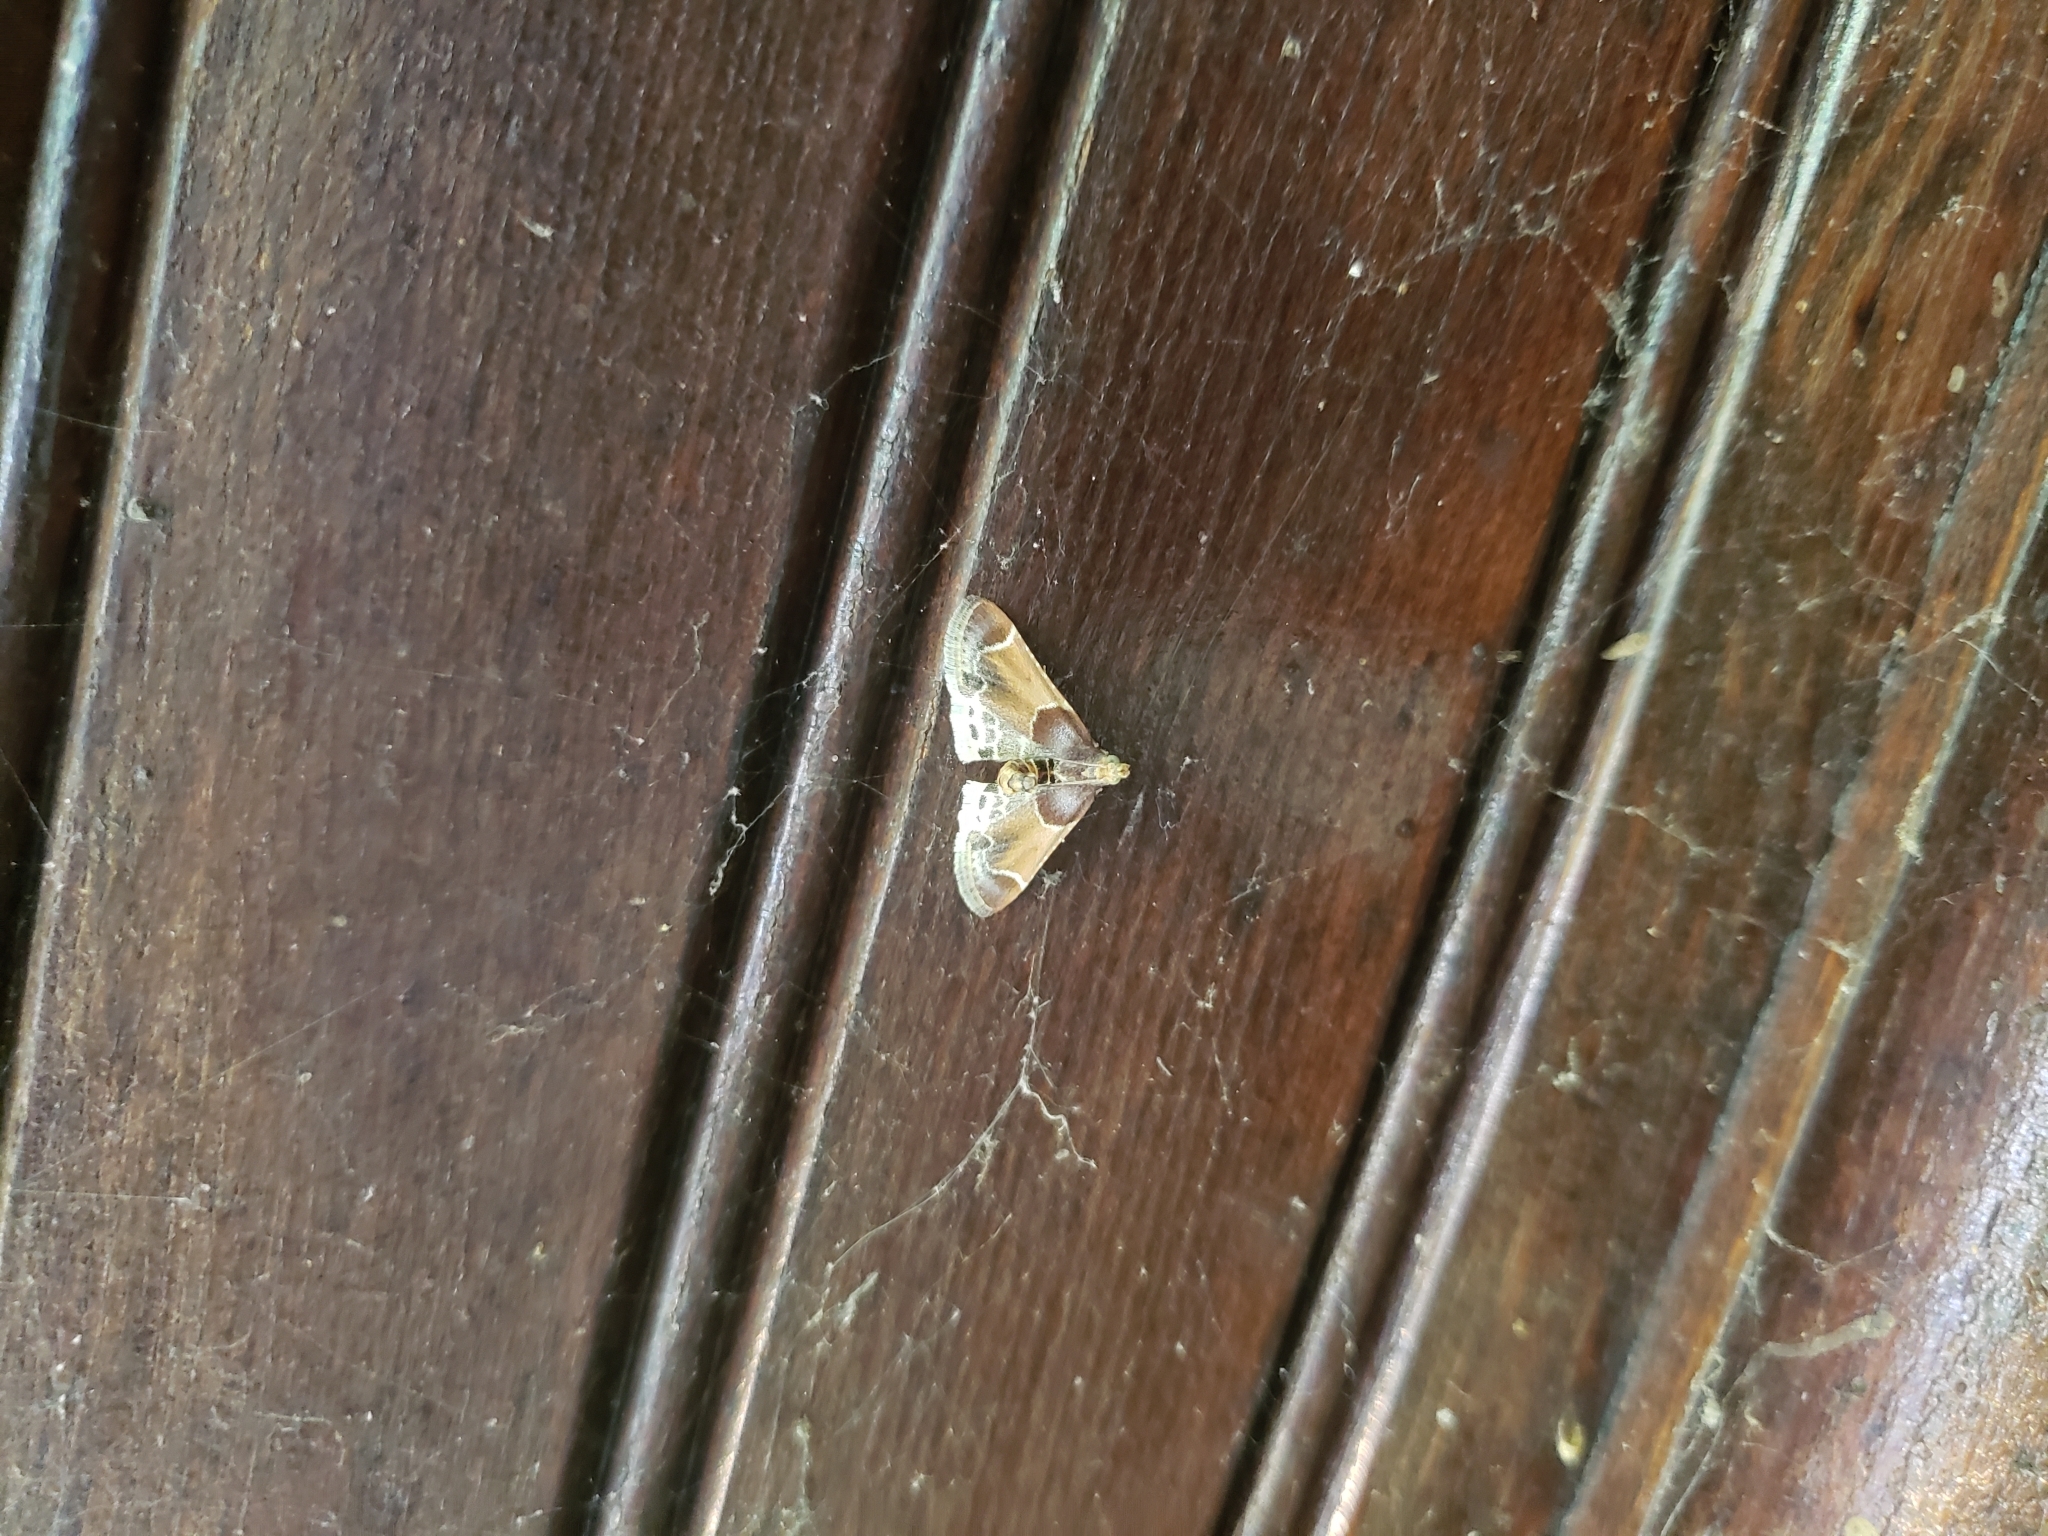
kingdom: Animalia
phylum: Arthropoda
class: Insecta
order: Lepidoptera
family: Pyralidae
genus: Pyralis
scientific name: Pyralis farinalis
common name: Meal moth
